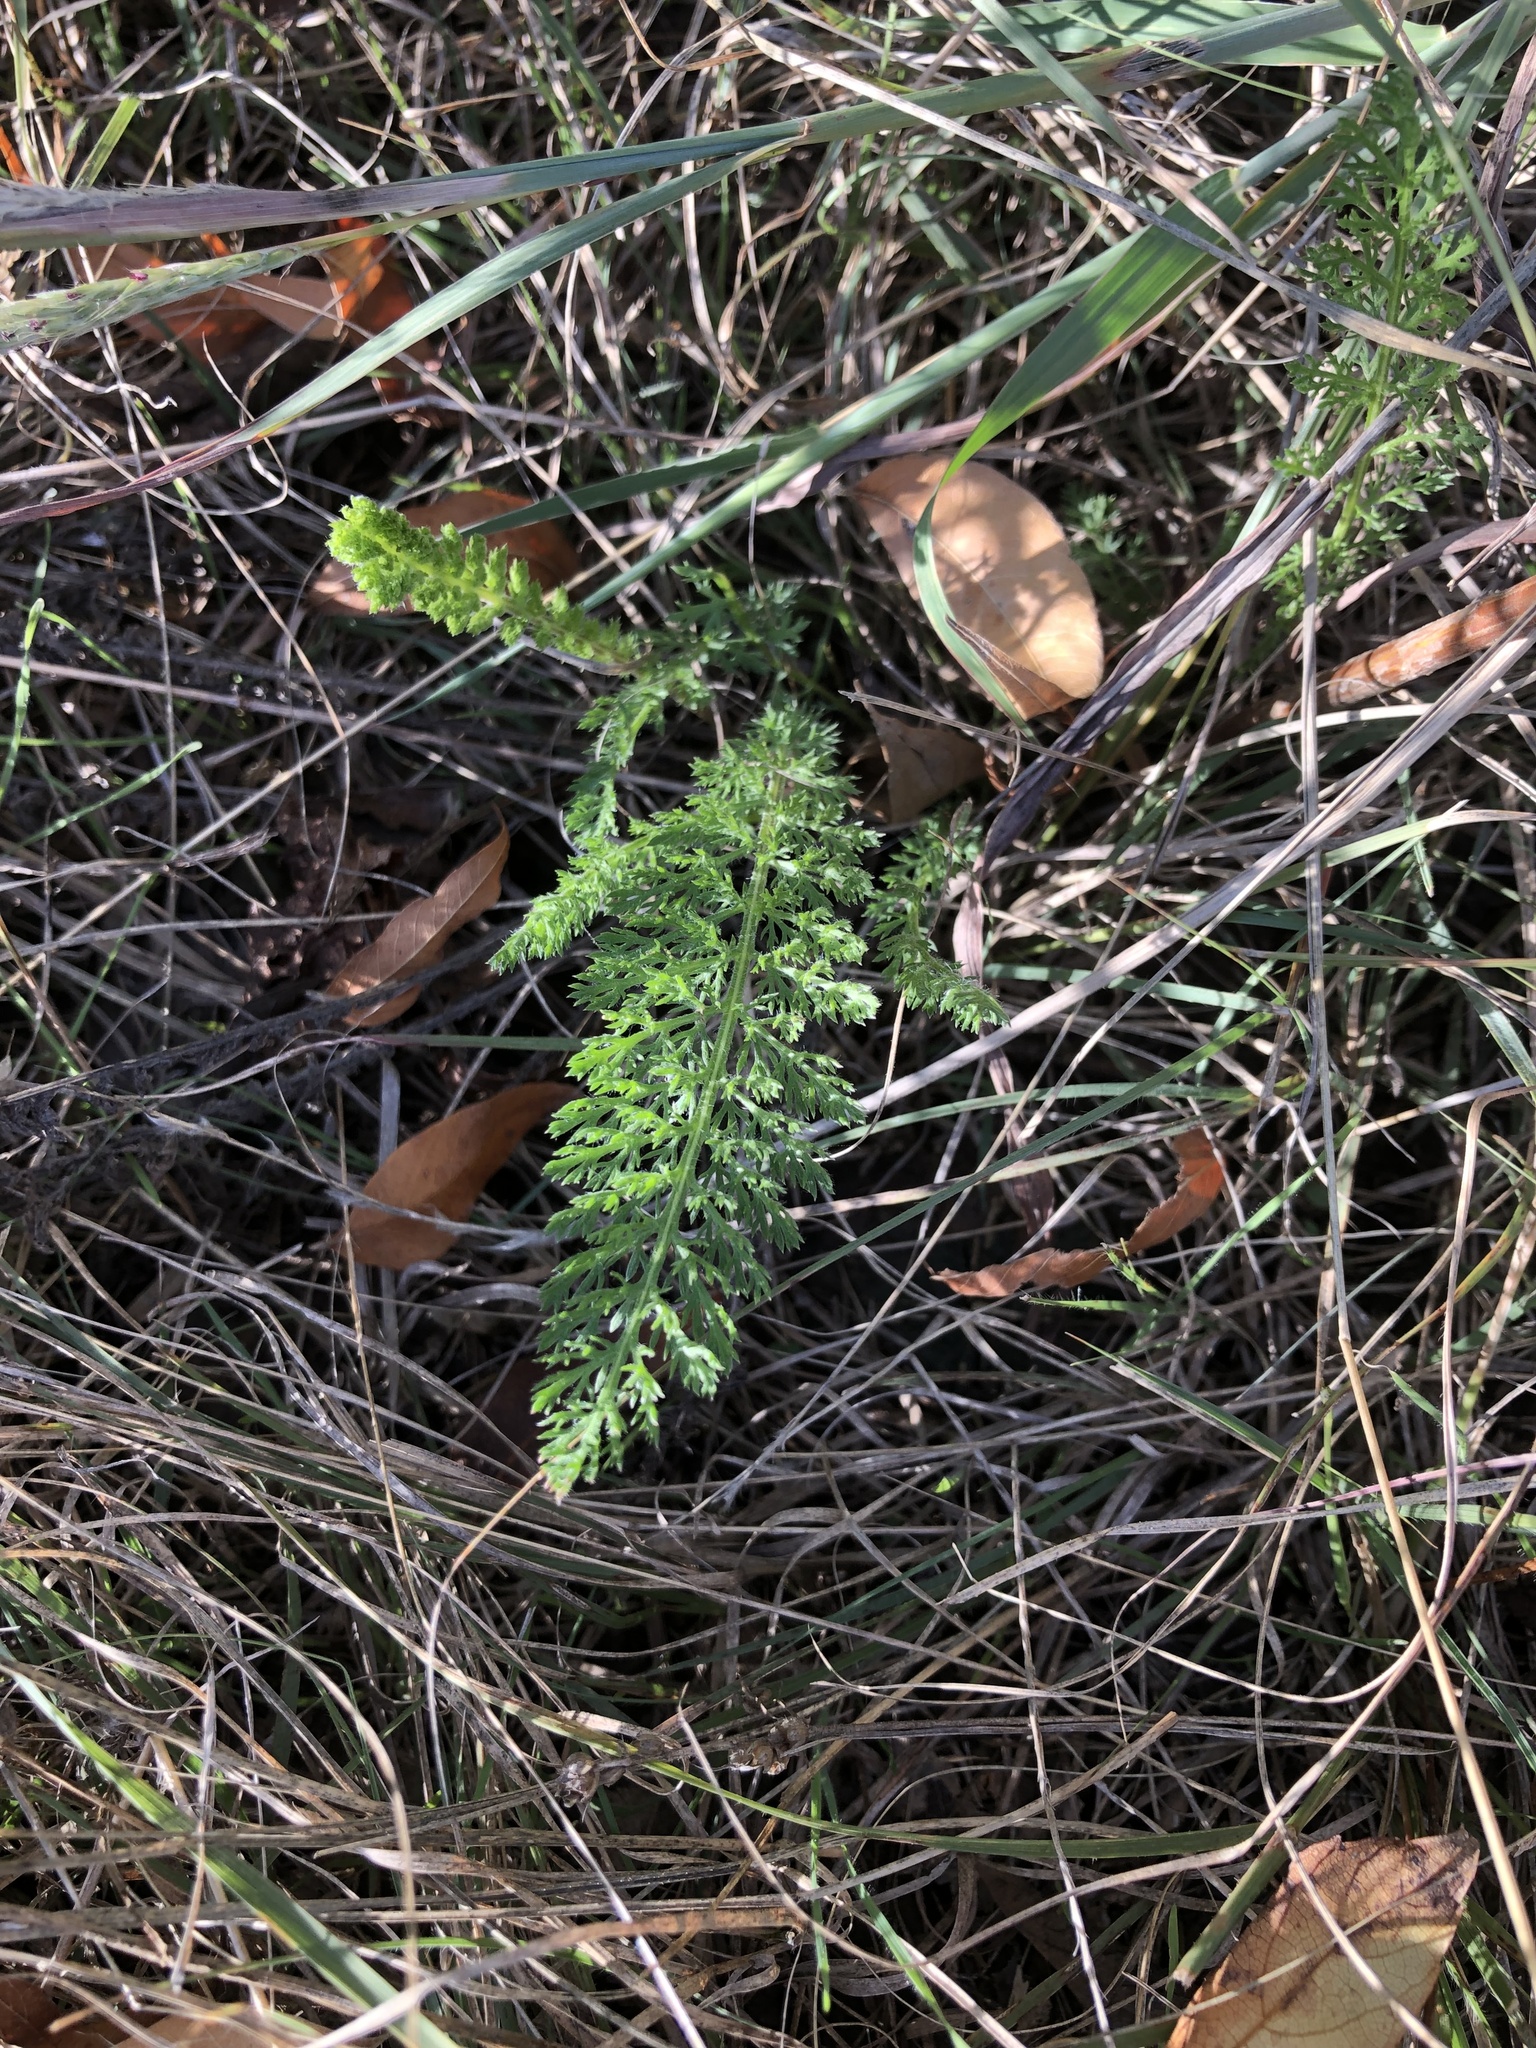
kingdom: Plantae
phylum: Tracheophyta
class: Magnoliopsida
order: Asterales
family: Asteraceae
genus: Achillea
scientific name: Achillea millefolium
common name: Yarrow
